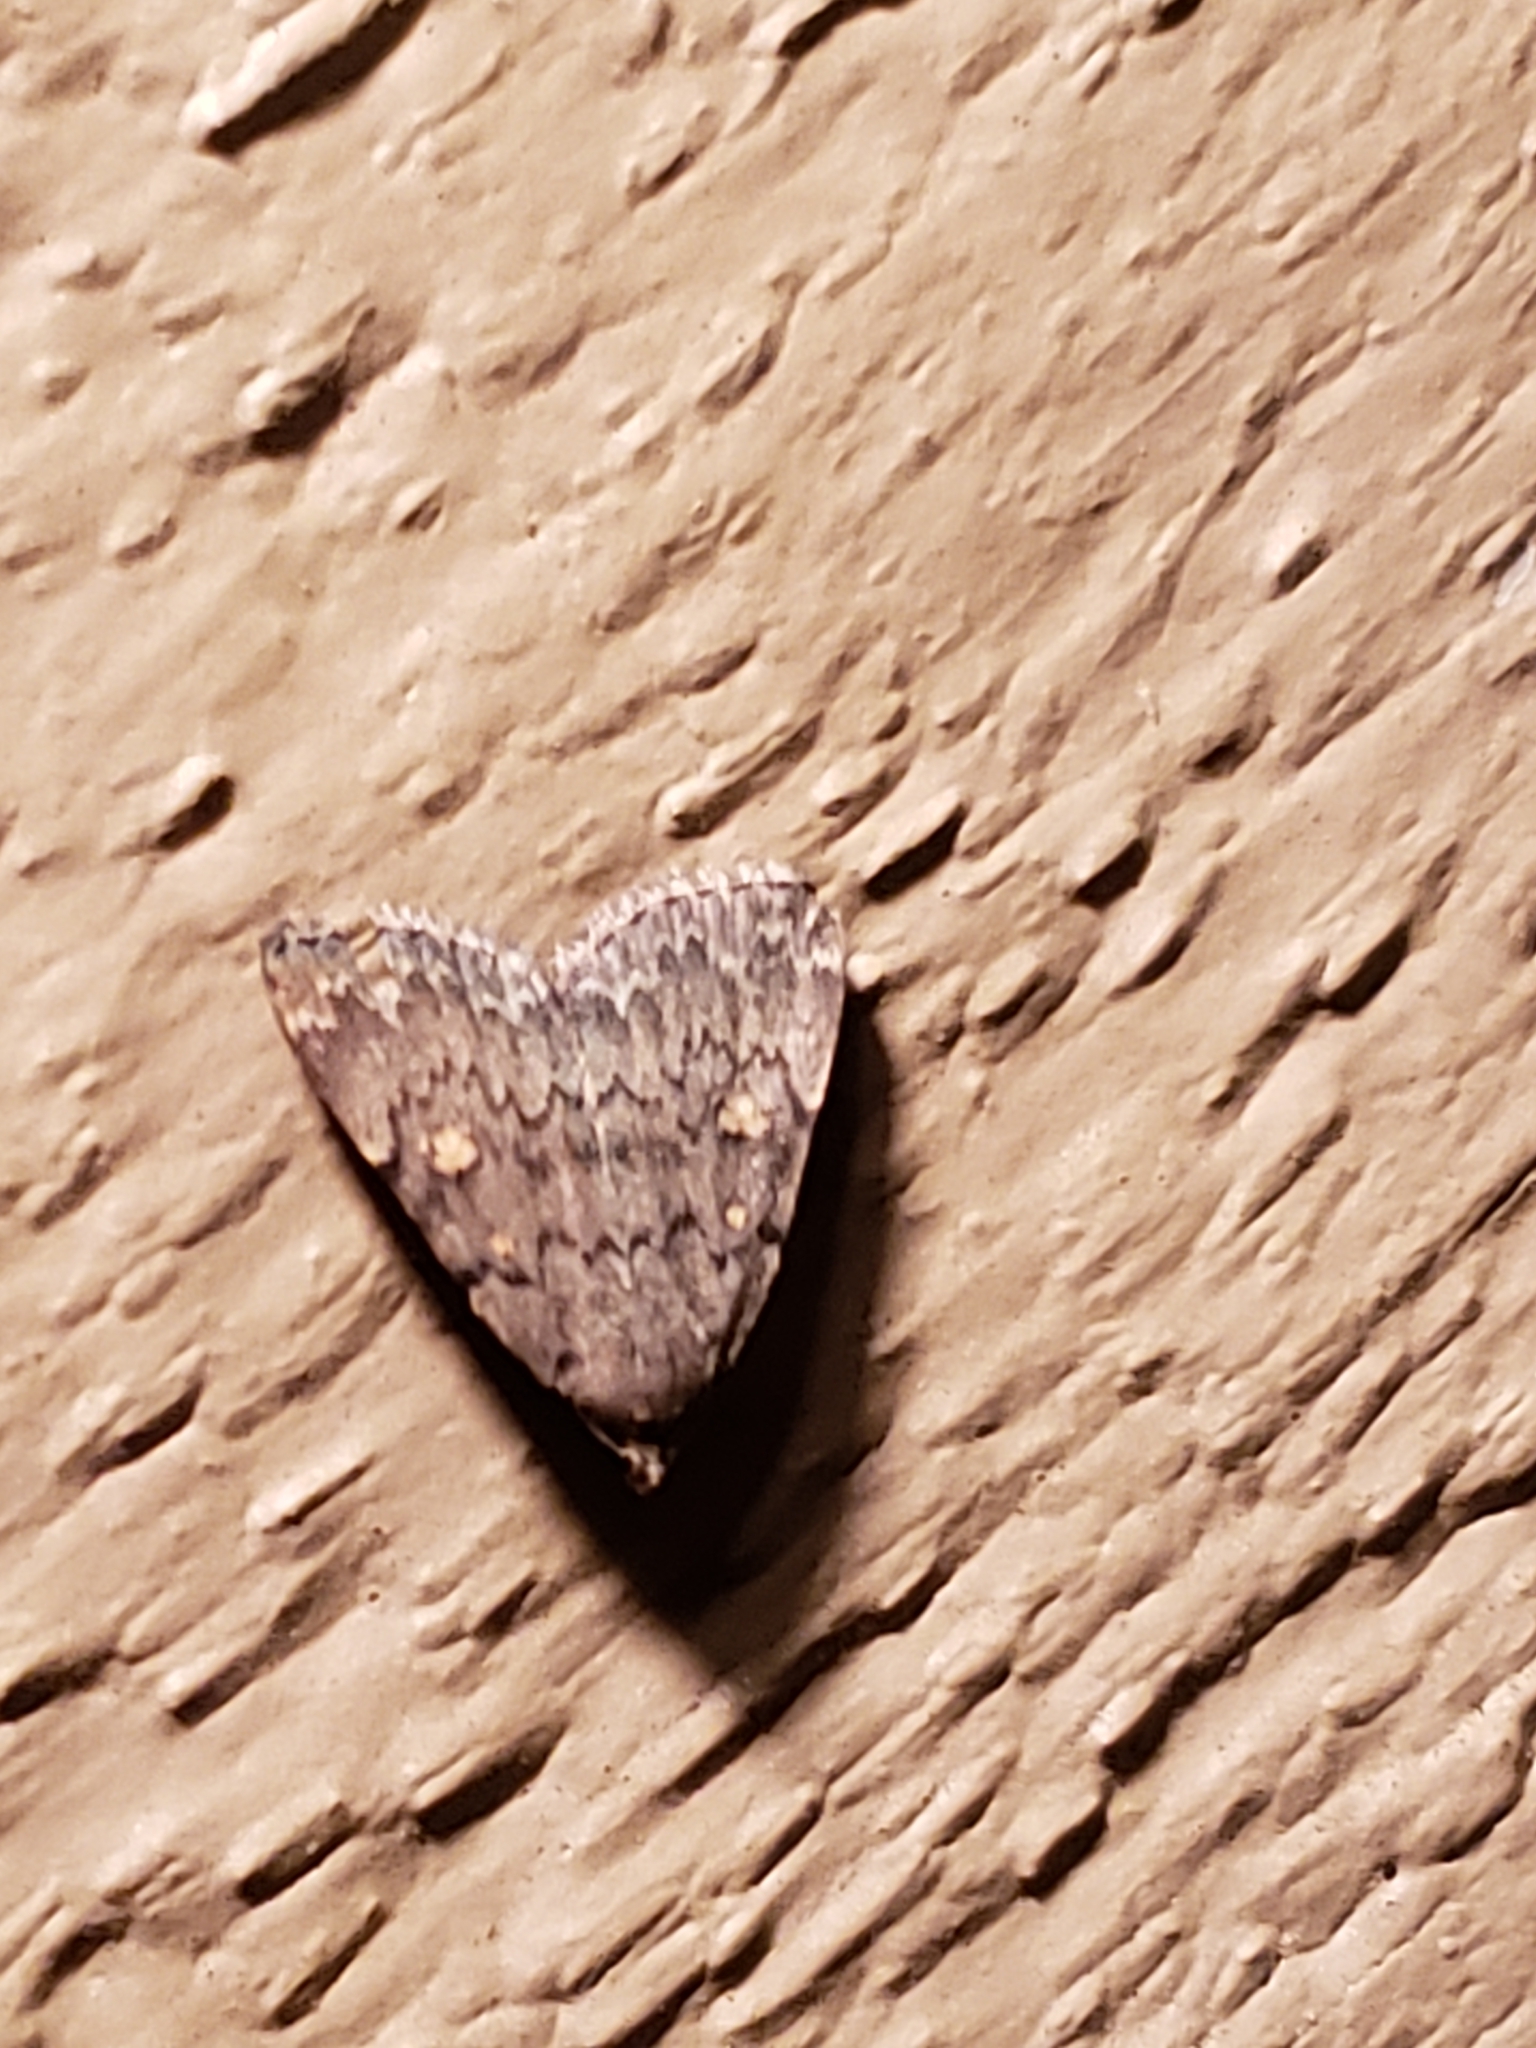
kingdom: Animalia
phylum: Arthropoda
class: Insecta
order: Lepidoptera
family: Erebidae
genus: Idia
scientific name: Idia aemula
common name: Common idia moth
